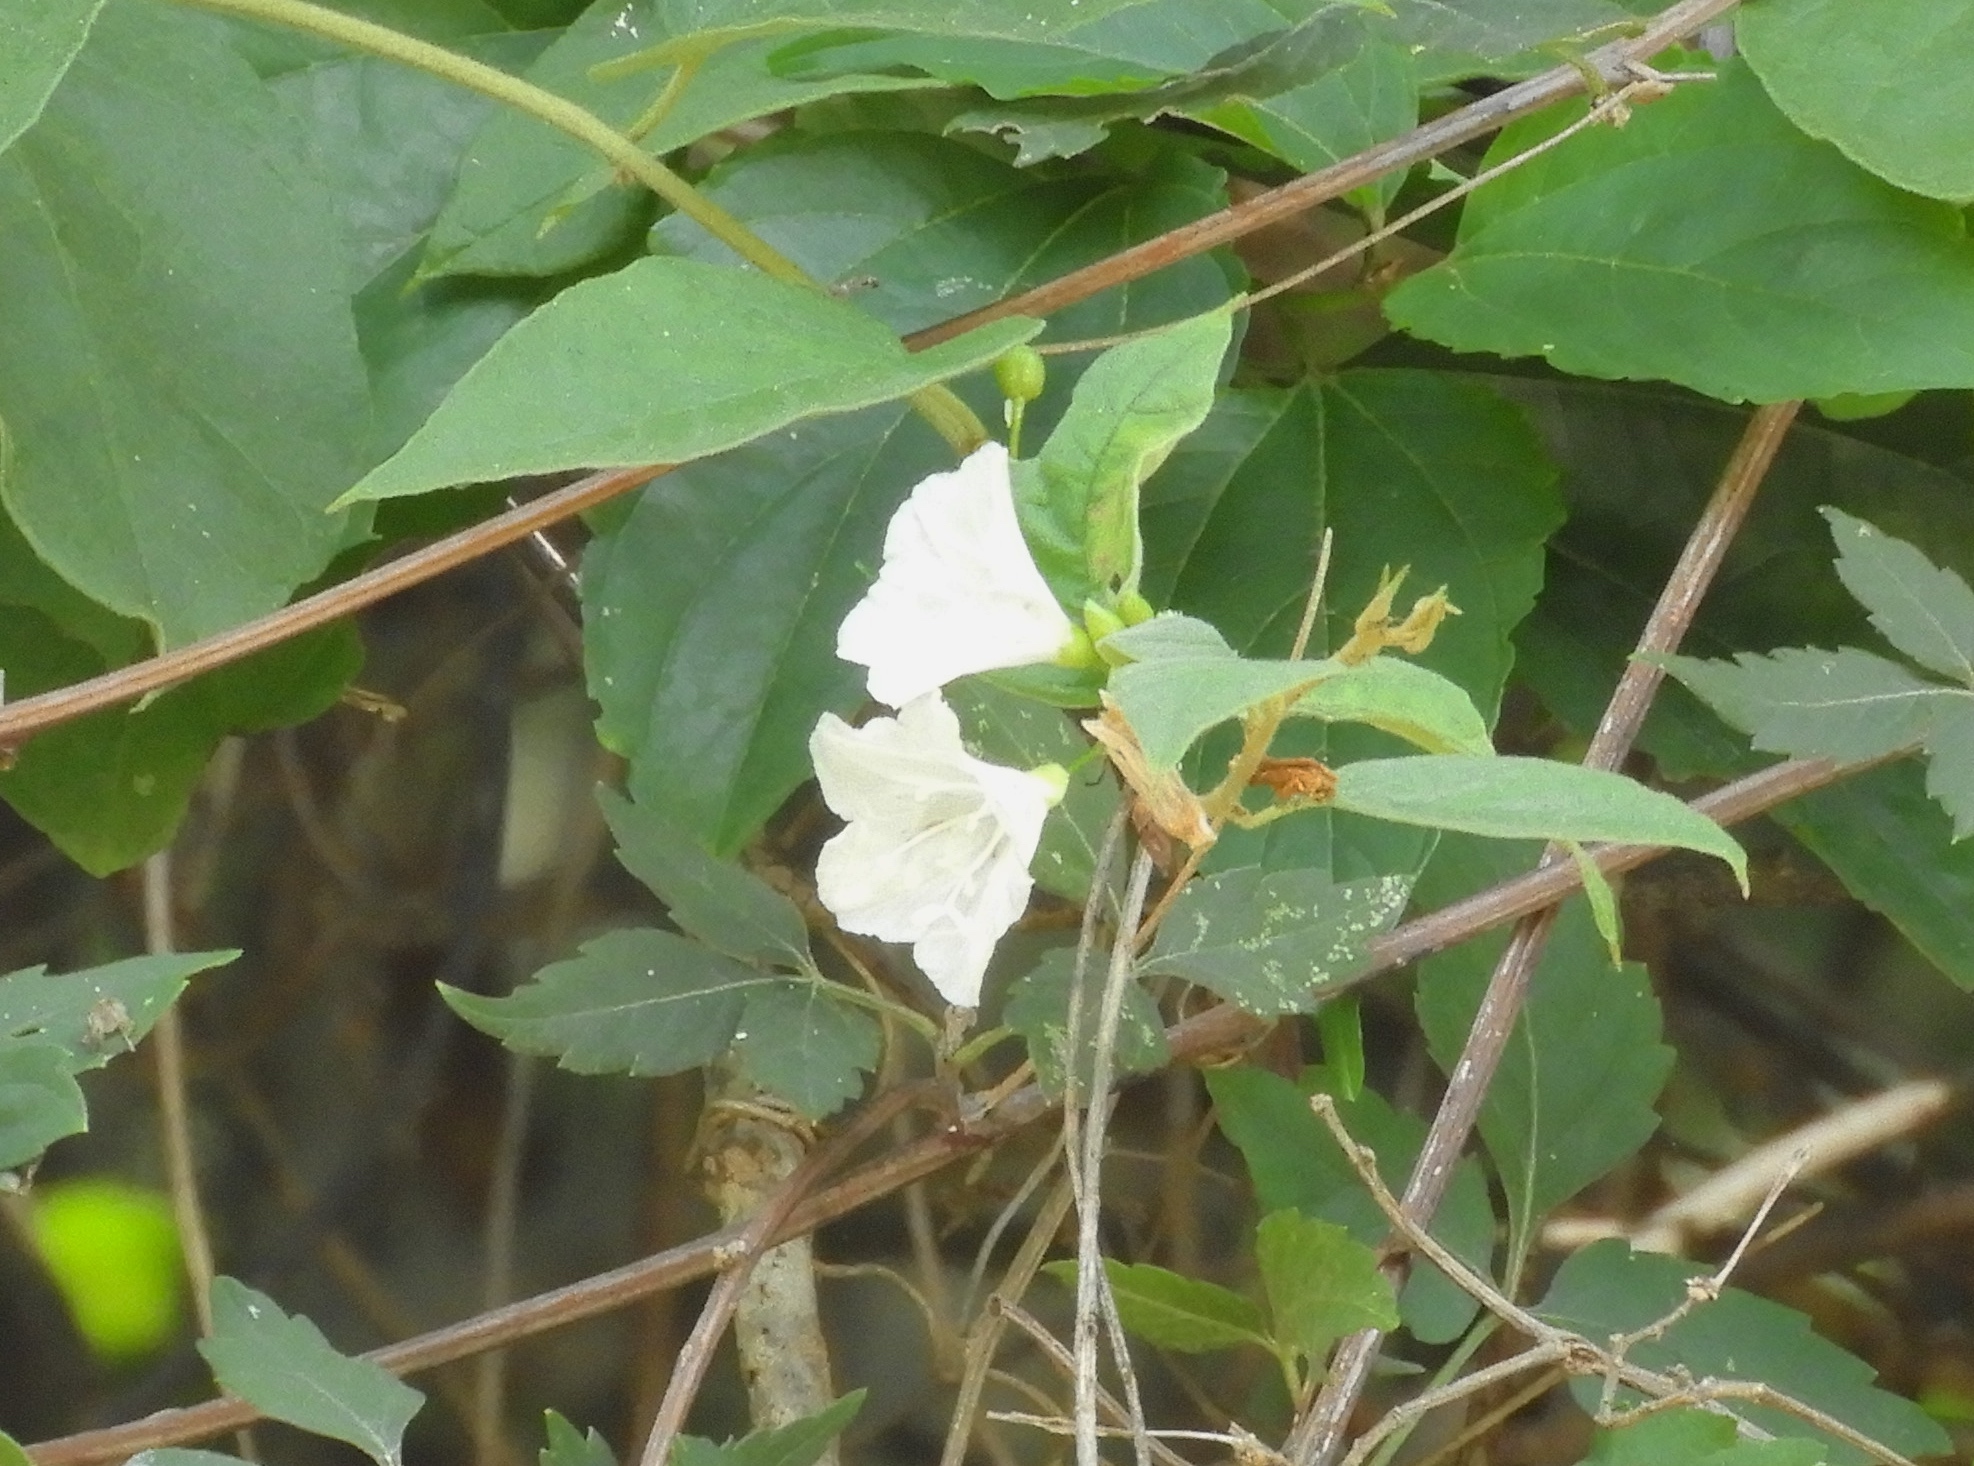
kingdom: Plantae
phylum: Tracheophyta
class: Magnoliopsida
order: Solanales
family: Convolvulaceae
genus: Jacquemontia
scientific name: Jacquemontia nodiflora
